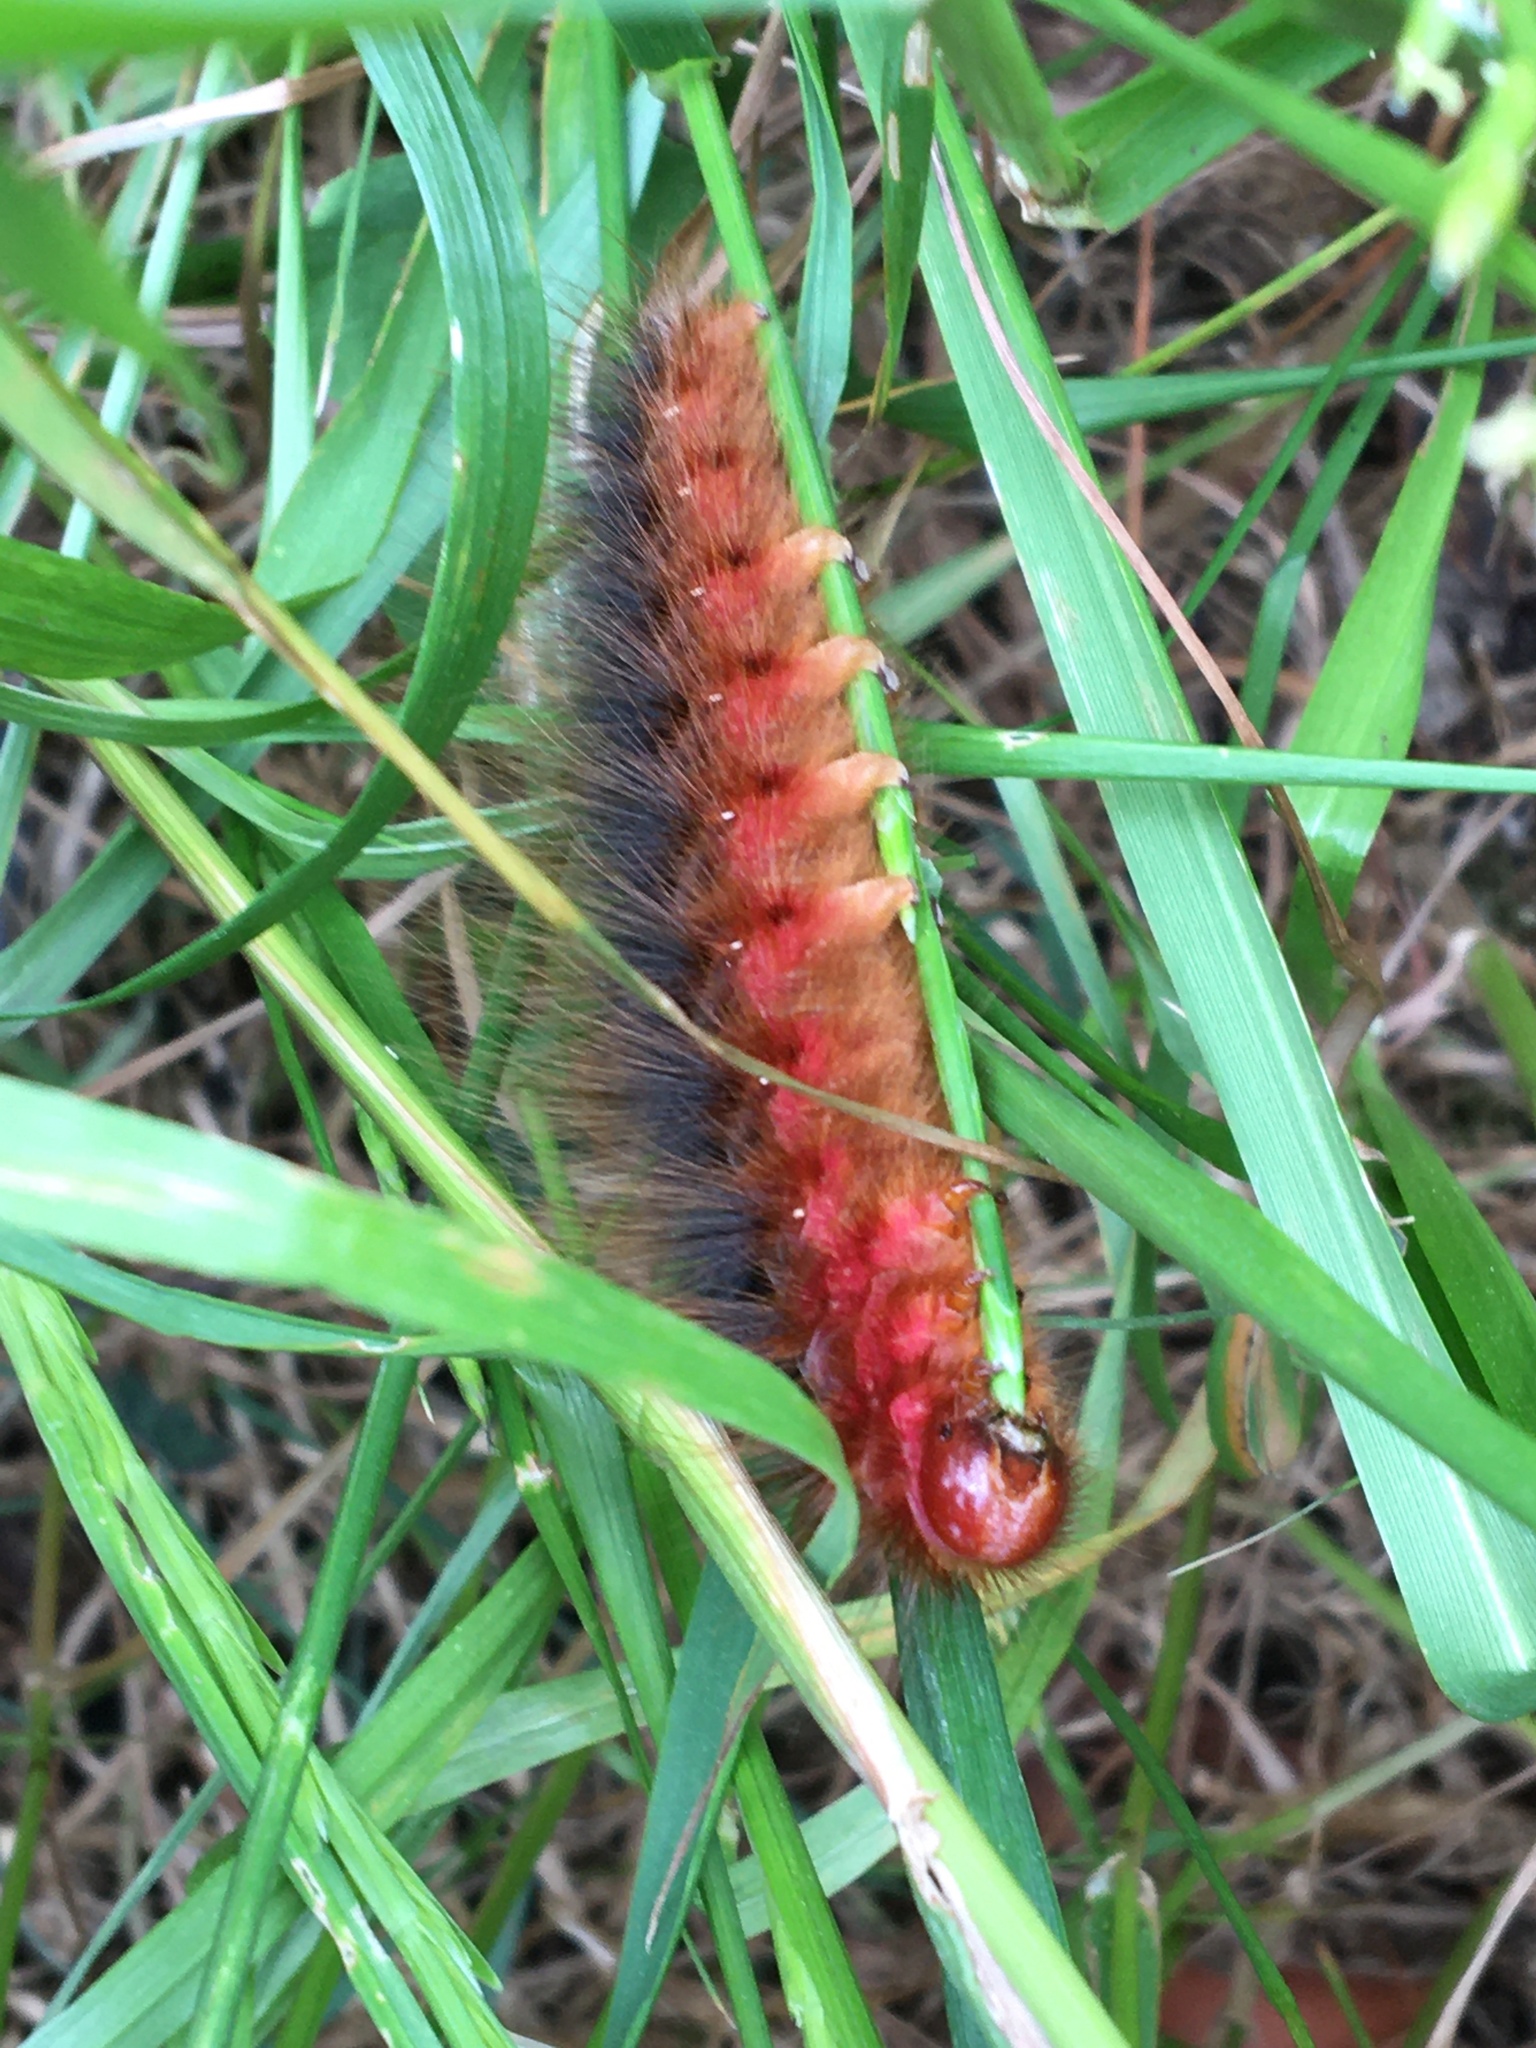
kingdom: Animalia
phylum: Arthropoda
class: Insecta
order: Lepidoptera
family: Eupterotidae
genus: Phyllalia
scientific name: Phyllalia patens
